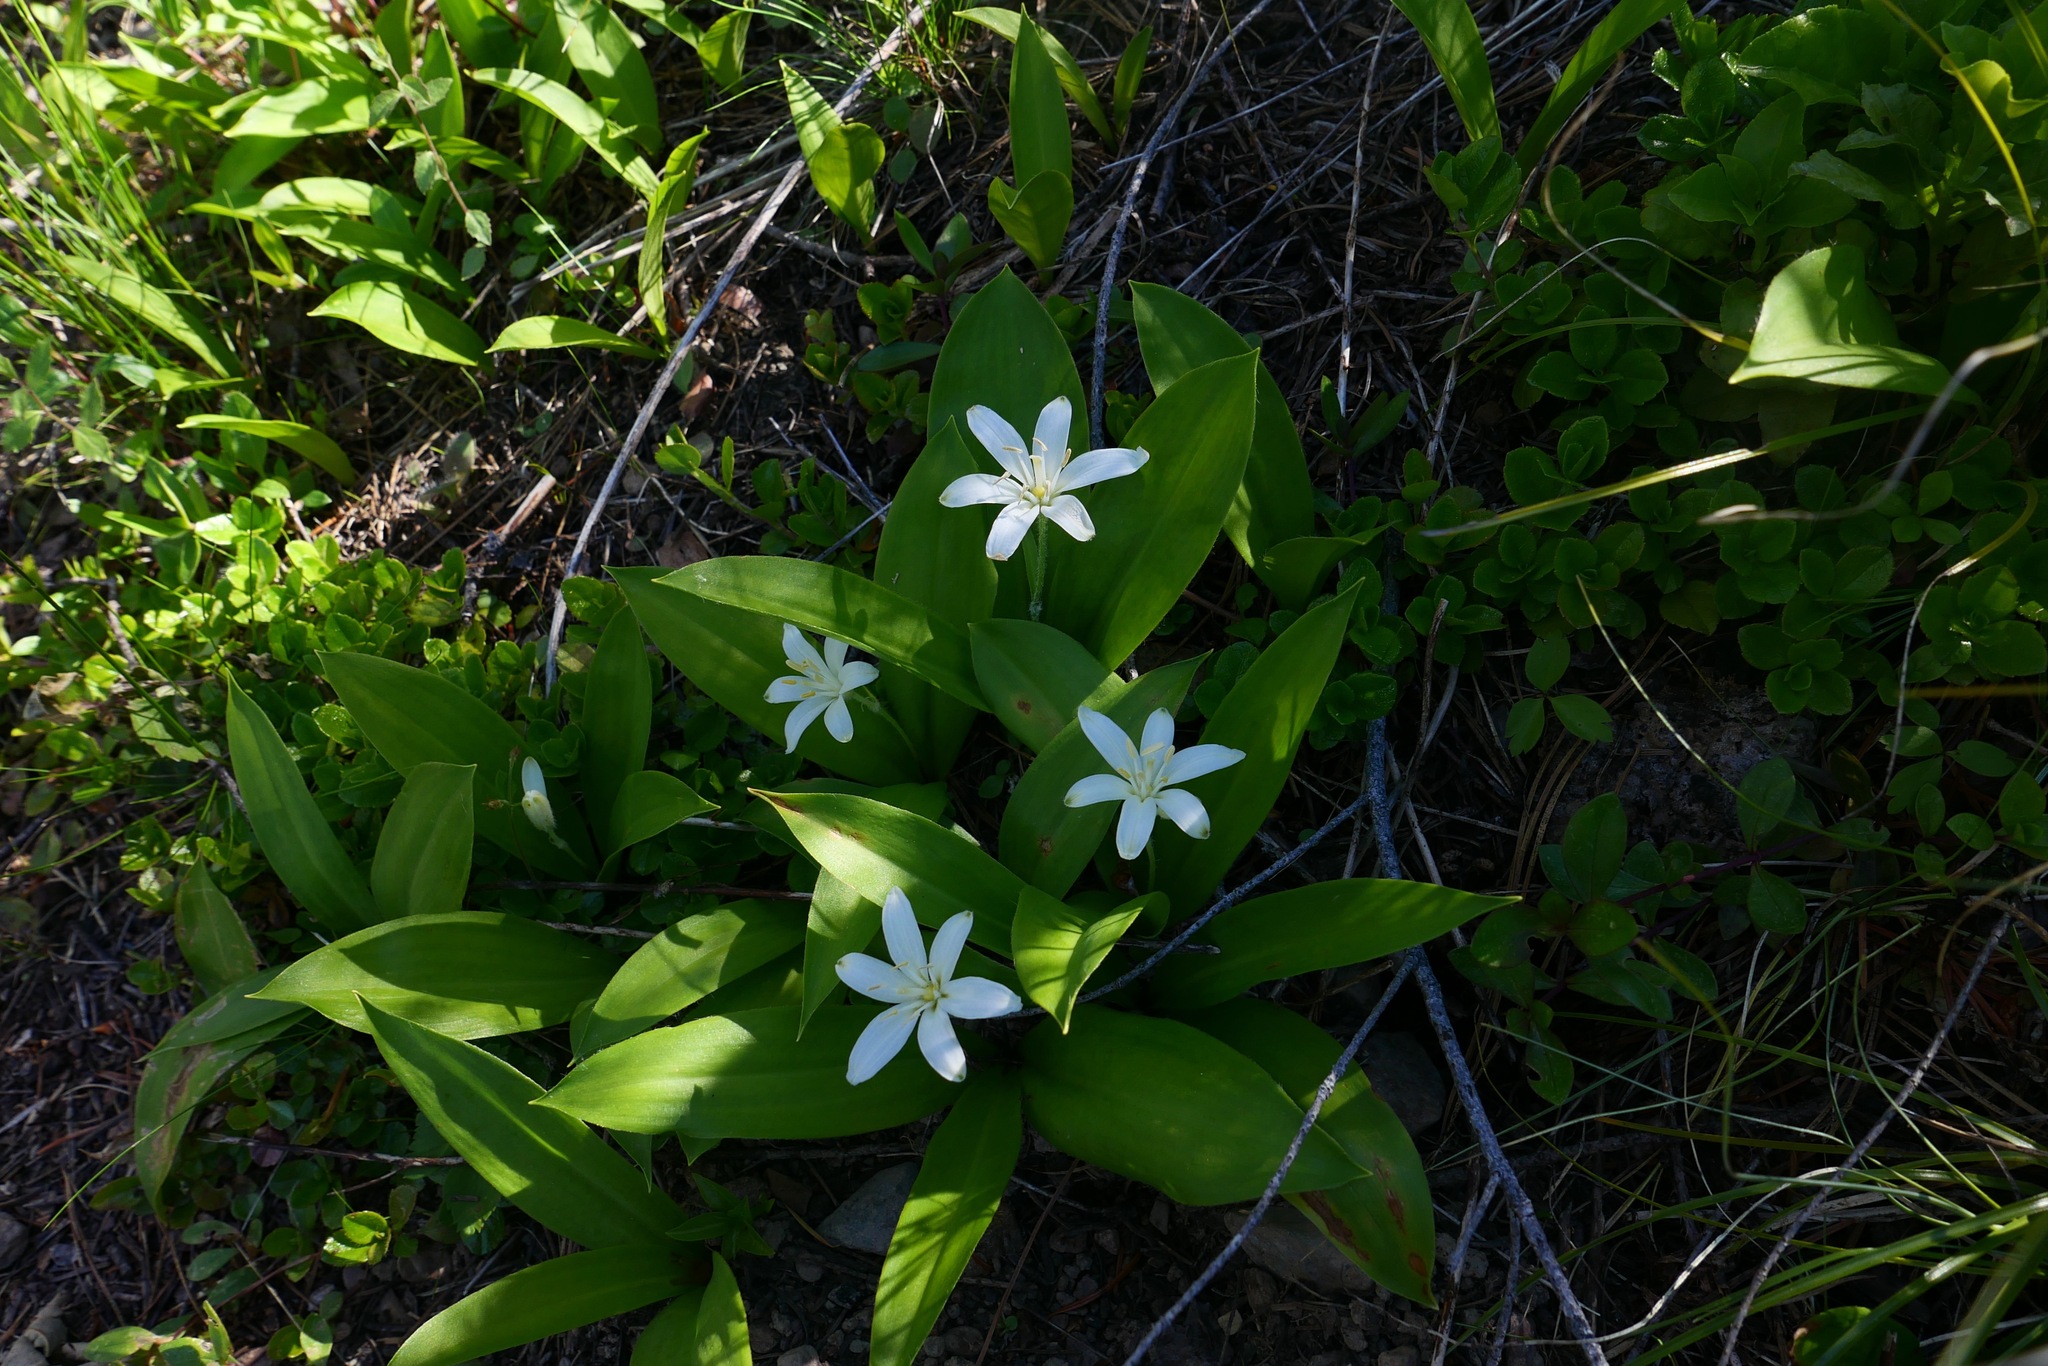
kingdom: Plantae
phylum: Tracheophyta
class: Liliopsida
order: Liliales
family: Liliaceae
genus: Clintonia
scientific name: Clintonia uniflora
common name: Queen's cup
